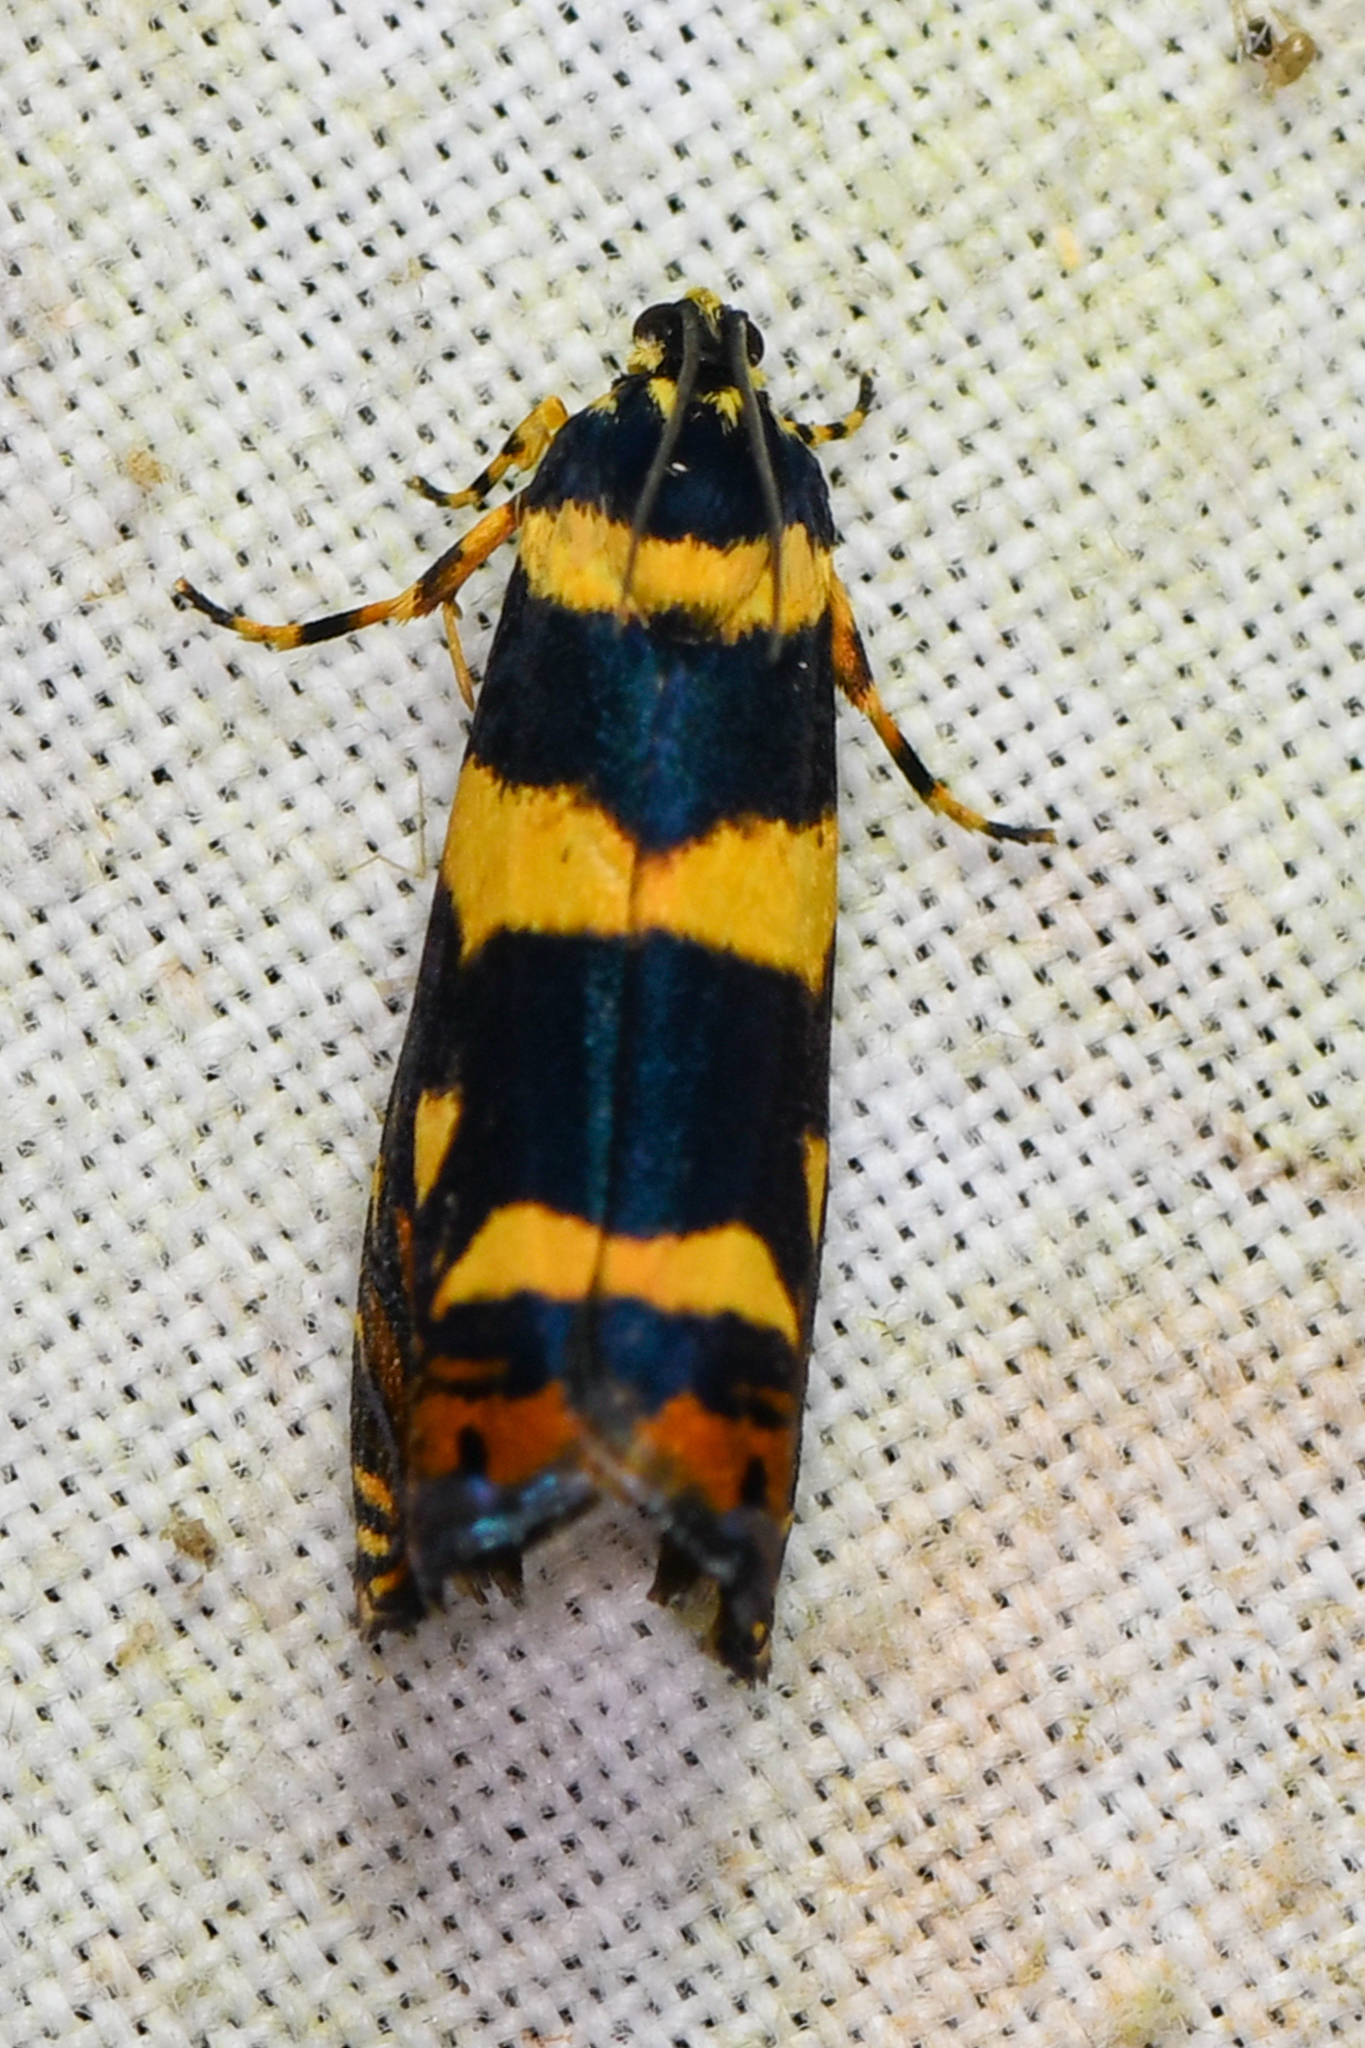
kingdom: Animalia
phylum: Arthropoda
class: Insecta
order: Lepidoptera
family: Tortricidae
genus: Hilarographa
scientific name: Hilarographa swederiana
